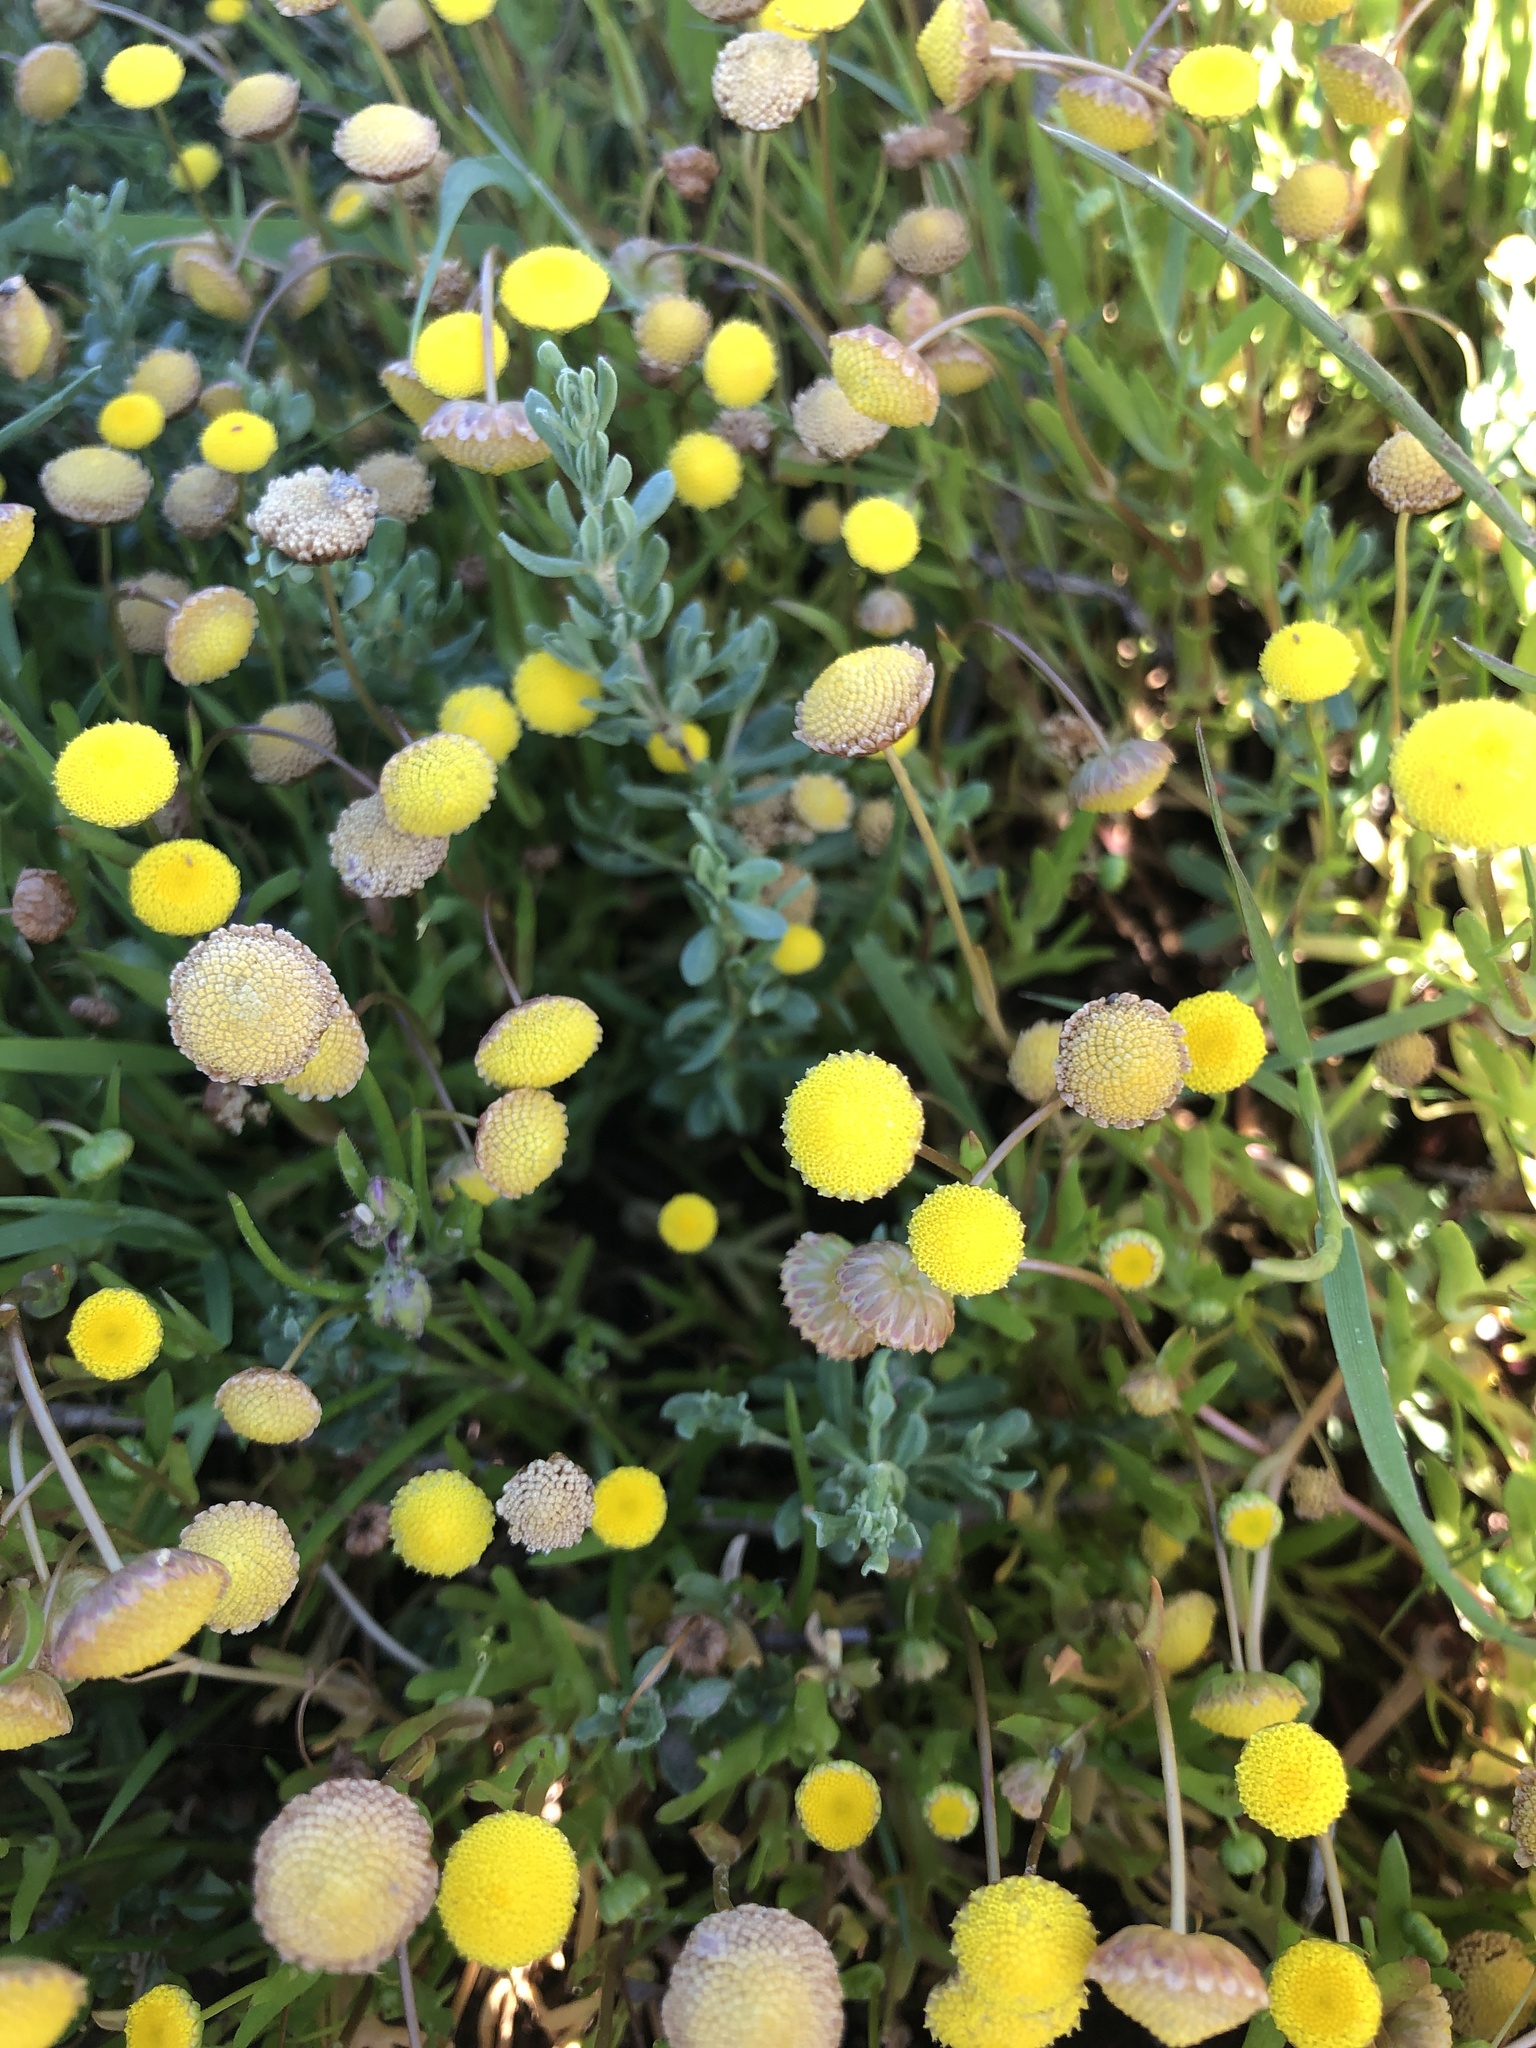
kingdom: Plantae
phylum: Tracheophyta
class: Magnoliopsida
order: Asterales
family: Asteraceae
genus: Cotula
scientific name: Cotula coronopifolia
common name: Buttonweed
